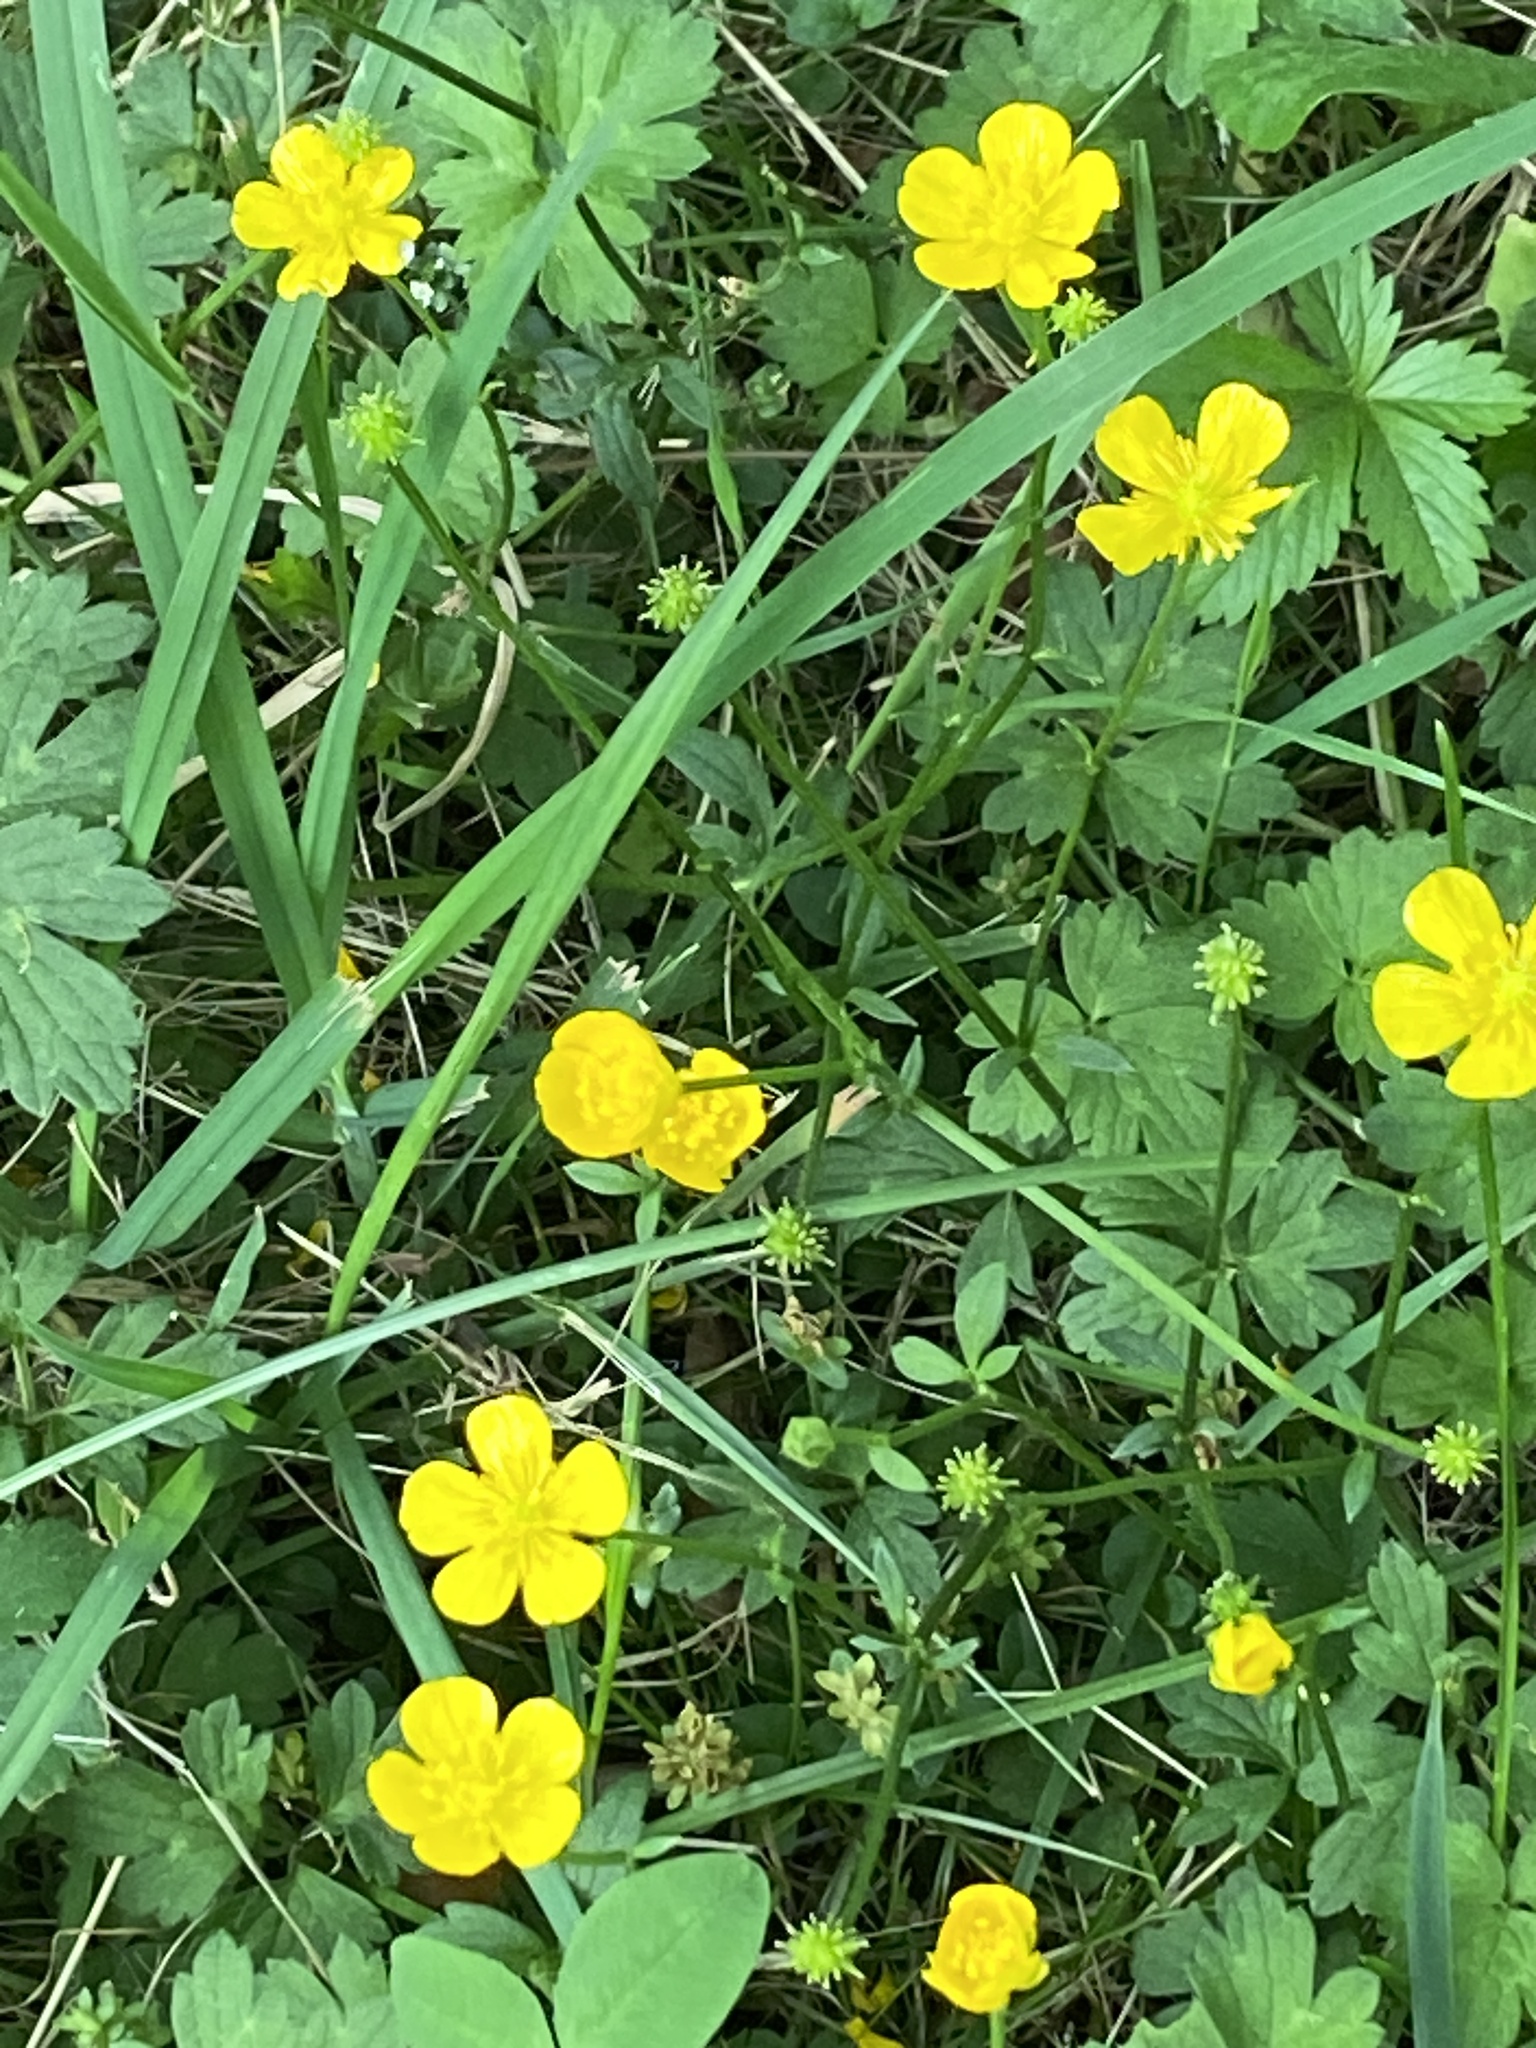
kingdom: Plantae
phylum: Tracheophyta
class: Magnoliopsida
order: Ranunculales
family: Ranunculaceae
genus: Ranunculus
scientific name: Ranunculus repens
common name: Creeping buttercup
